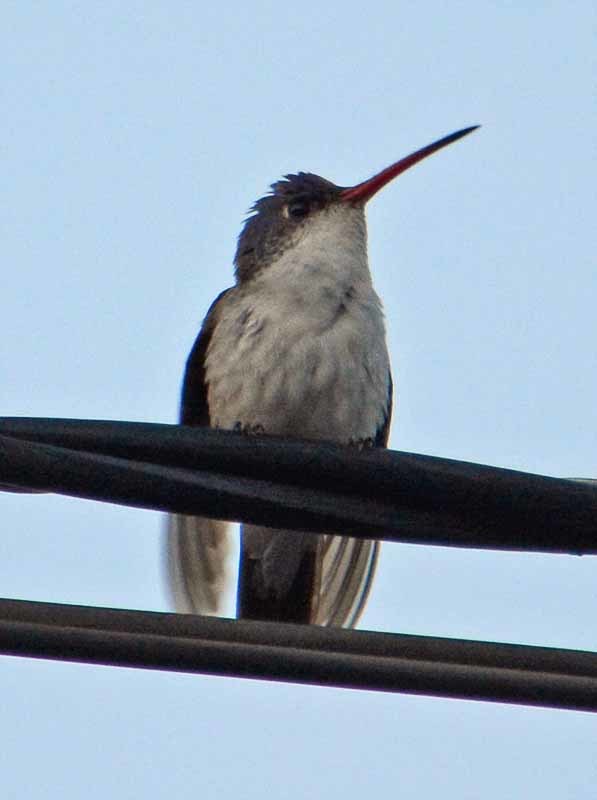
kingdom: Animalia
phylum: Chordata
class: Aves
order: Apodiformes
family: Trochilidae
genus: Leucolia
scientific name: Leucolia violiceps
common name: Violet-crowned hummingbird
